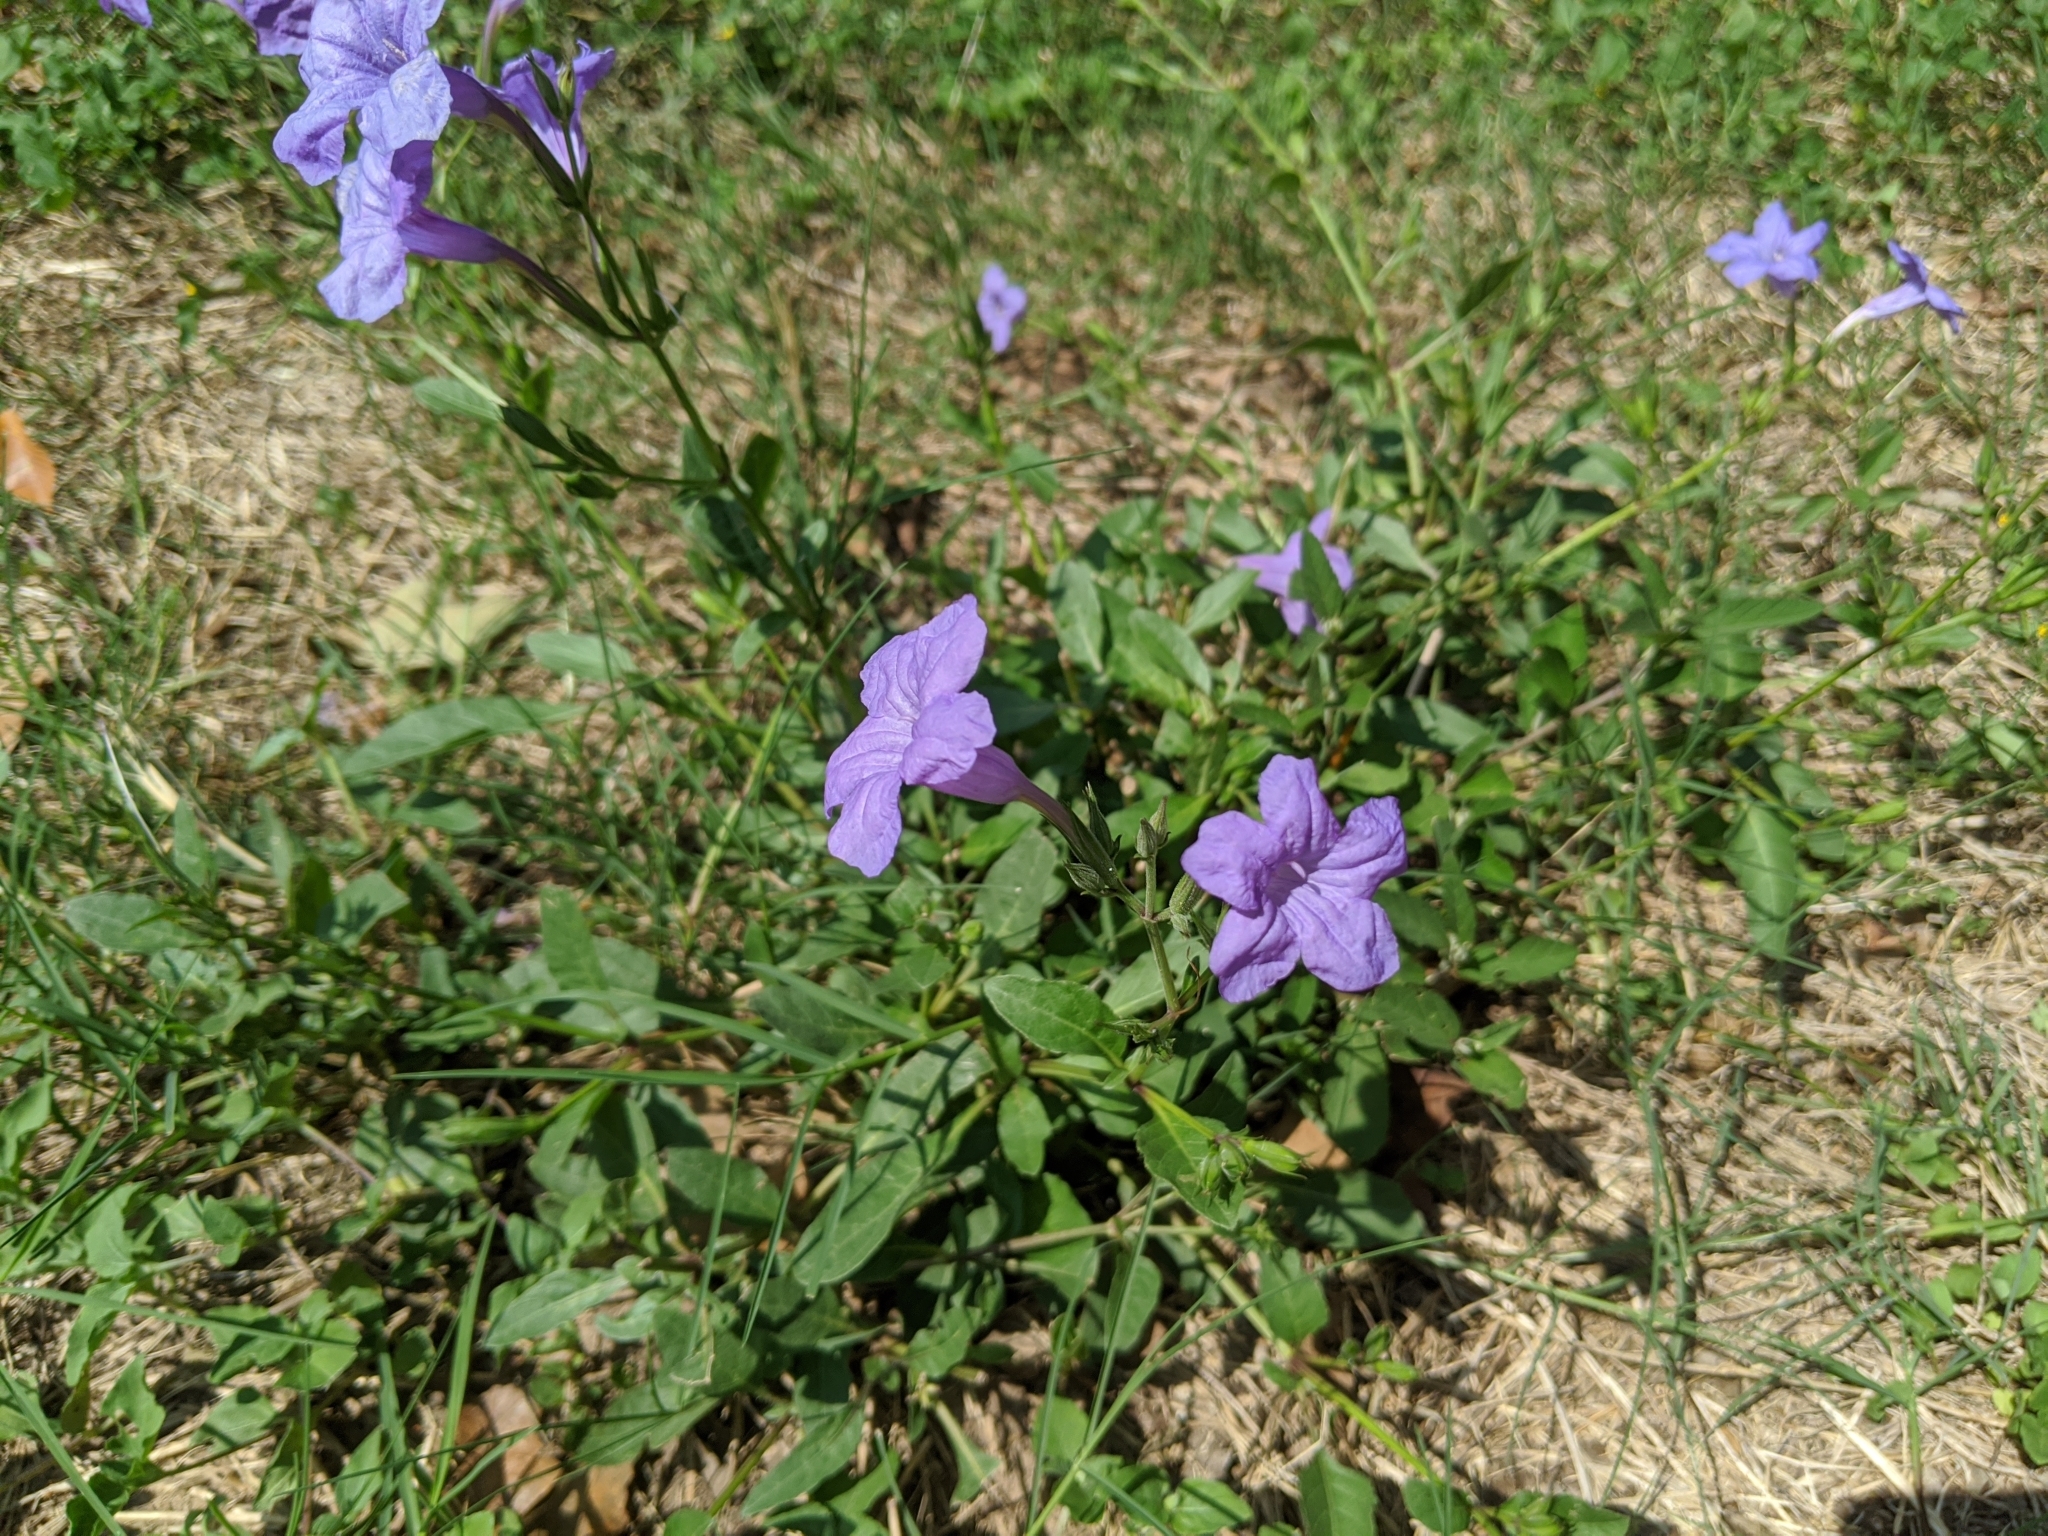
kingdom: Plantae
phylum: Tracheophyta
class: Magnoliopsida
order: Lamiales
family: Acanthaceae
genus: Ruellia
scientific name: Ruellia ciliatiflora
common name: Hairyflower wild petunia
